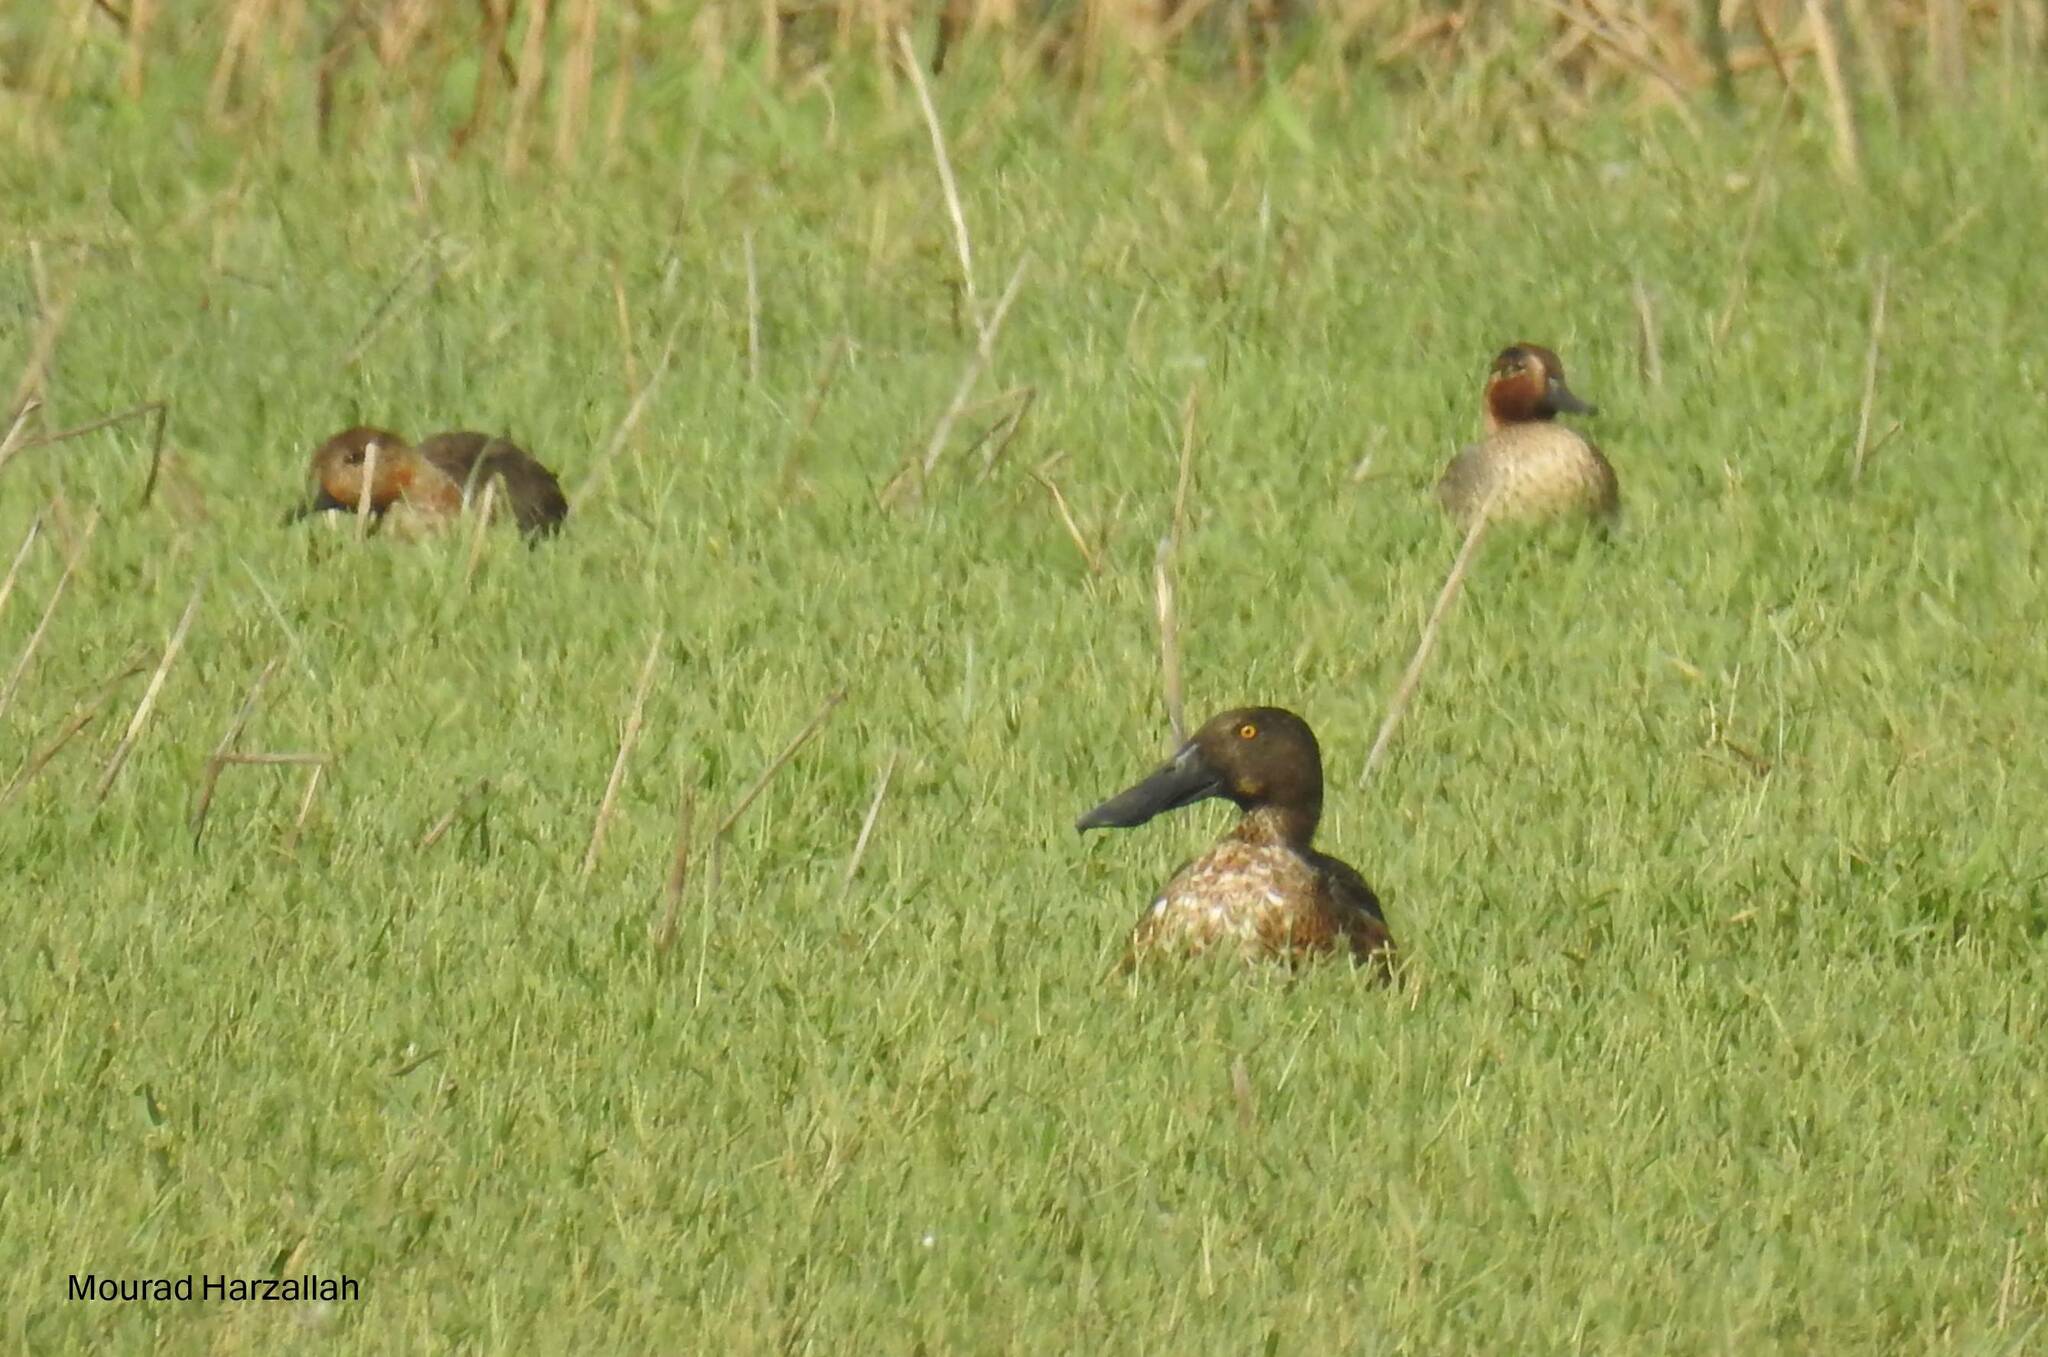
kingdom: Animalia
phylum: Chordata
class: Aves
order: Anseriformes
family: Anatidae
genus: Spatula
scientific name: Spatula clypeata
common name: Northern shoveler
